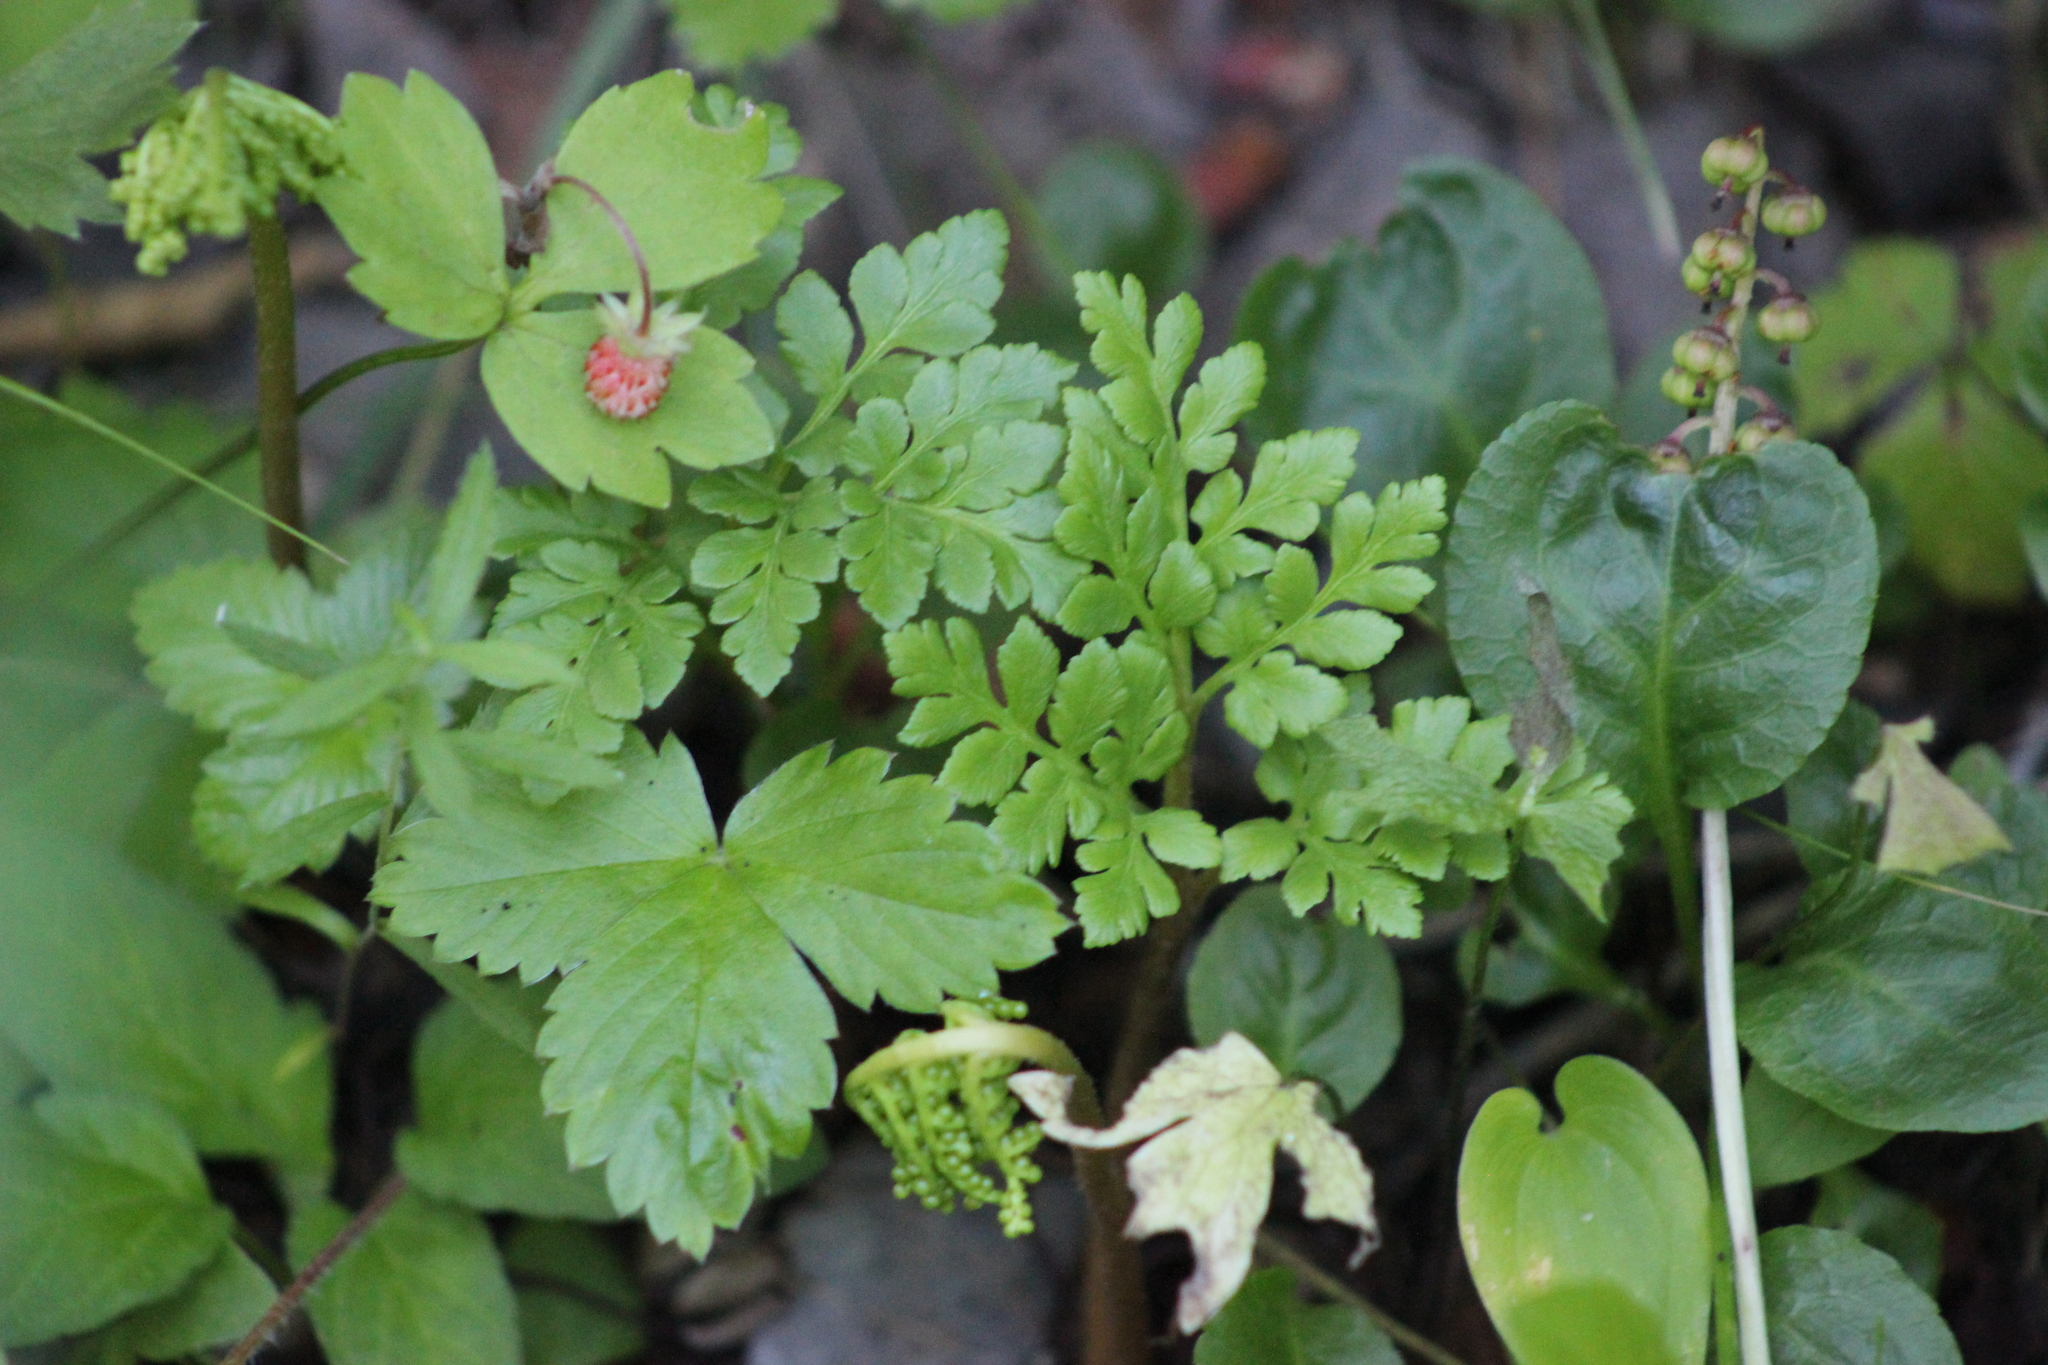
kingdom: Plantae
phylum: Tracheophyta
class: Polypodiopsida
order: Ophioglossales
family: Ophioglossaceae
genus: Sceptridium
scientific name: Sceptridium multifidum
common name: Leathery grape fern
